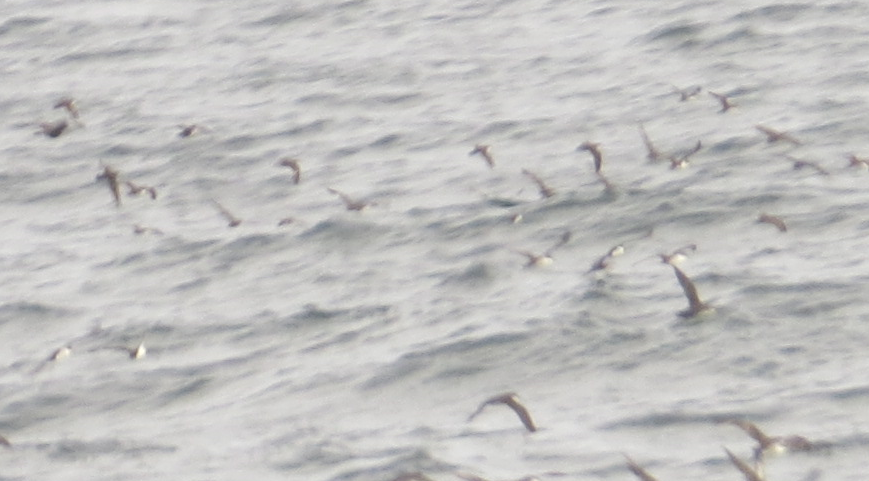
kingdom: Animalia
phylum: Chordata
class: Aves
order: Procellariiformes
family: Procellariidae
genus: Puffinus
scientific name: Puffinus subalaris
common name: Galapagos shearwater
